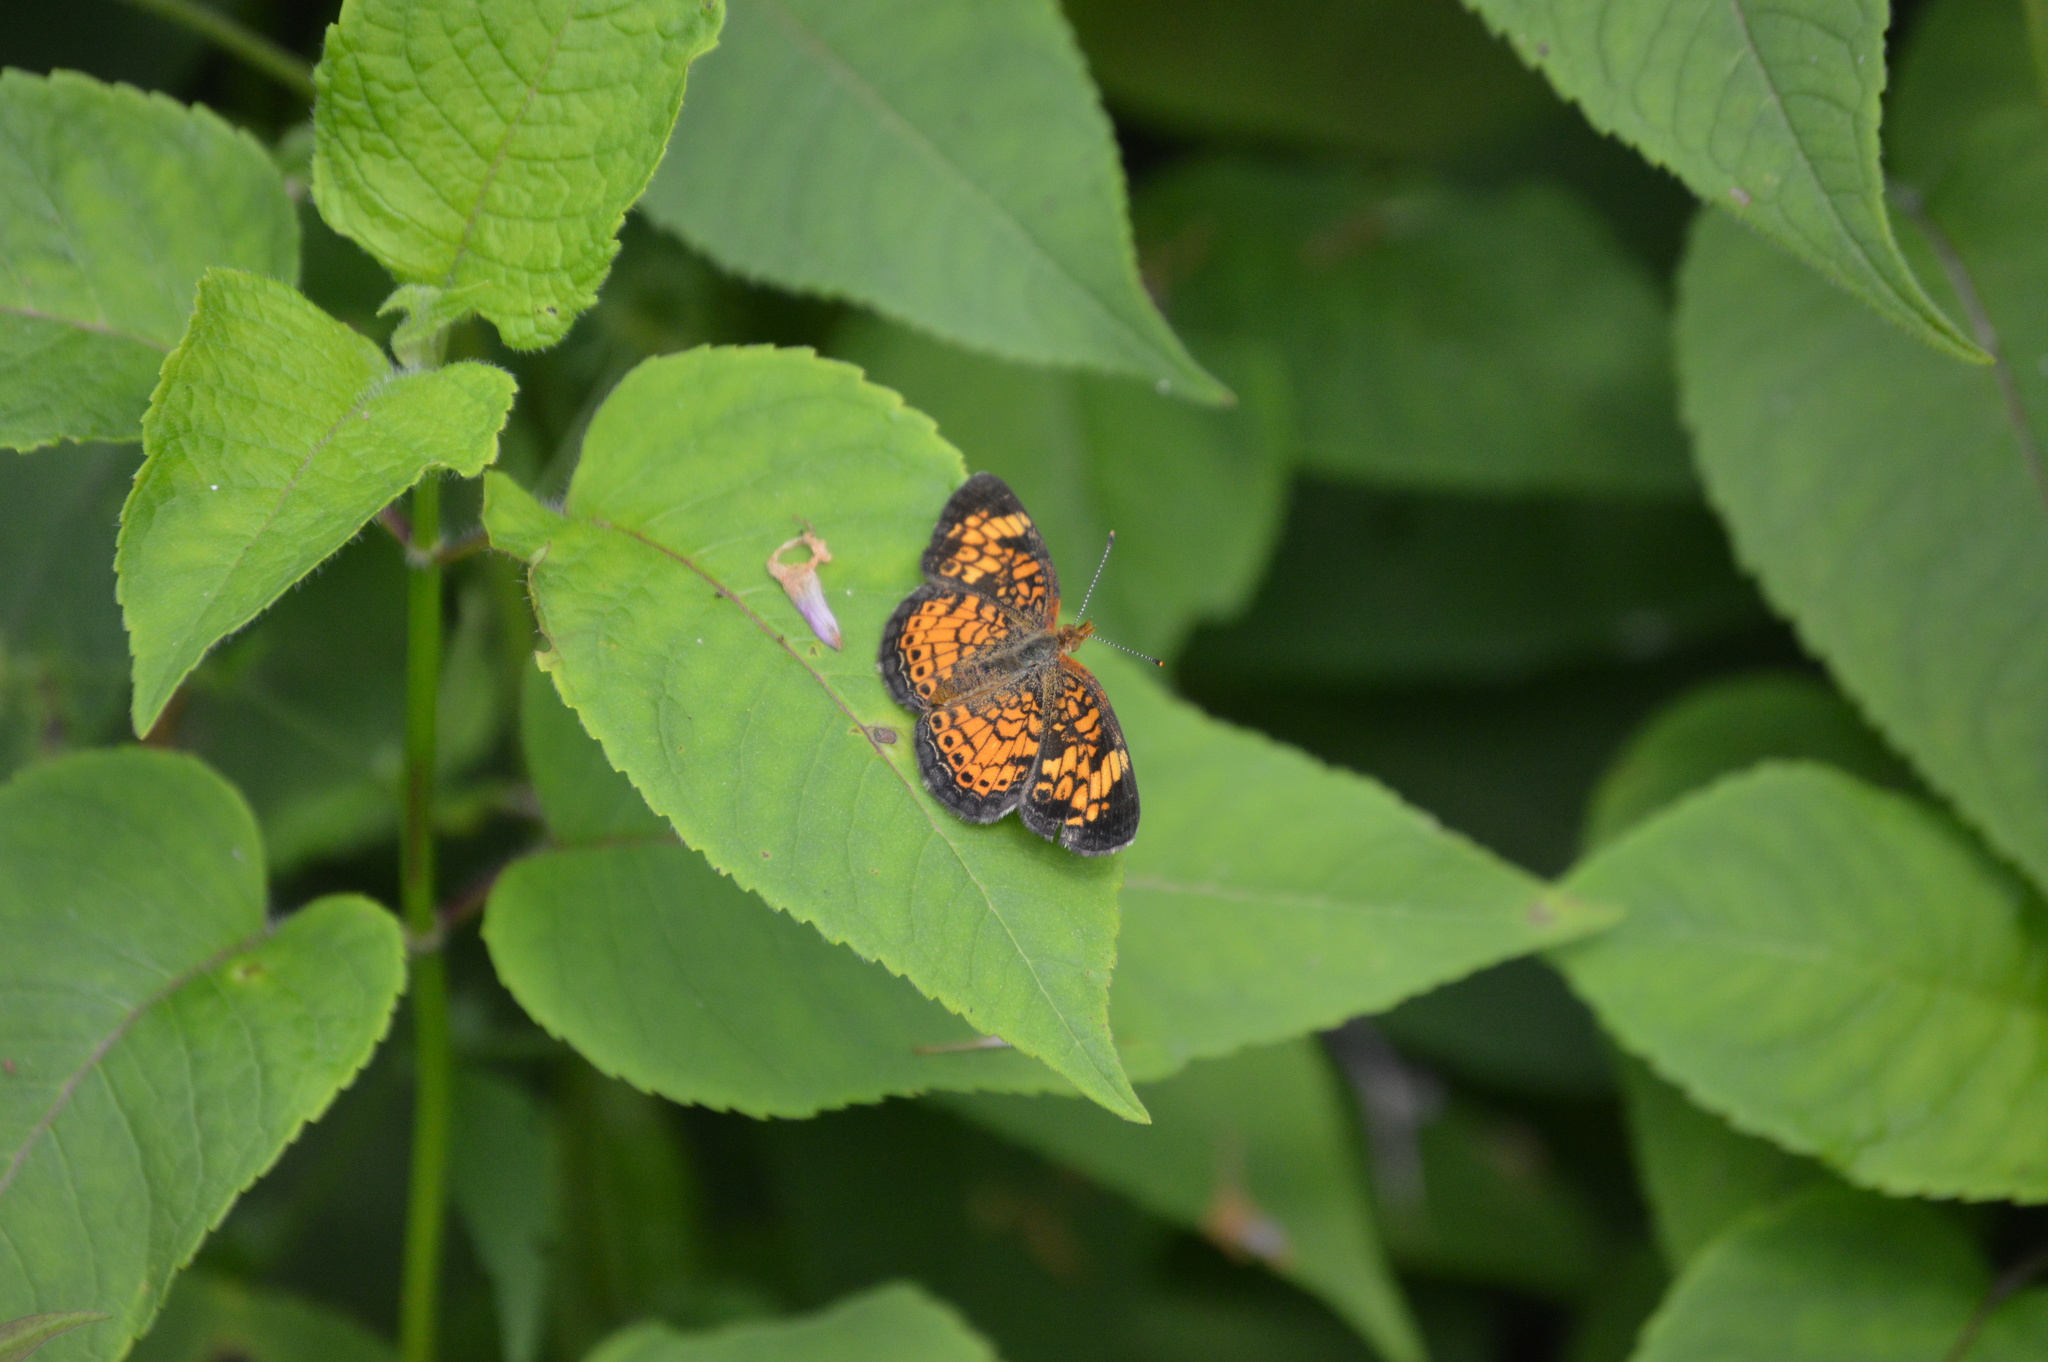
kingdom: Animalia
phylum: Arthropoda
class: Insecta
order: Lepidoptera
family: Nymphalidae
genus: Phyciodes
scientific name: Phyciodes tharos
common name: Pearl crescent
